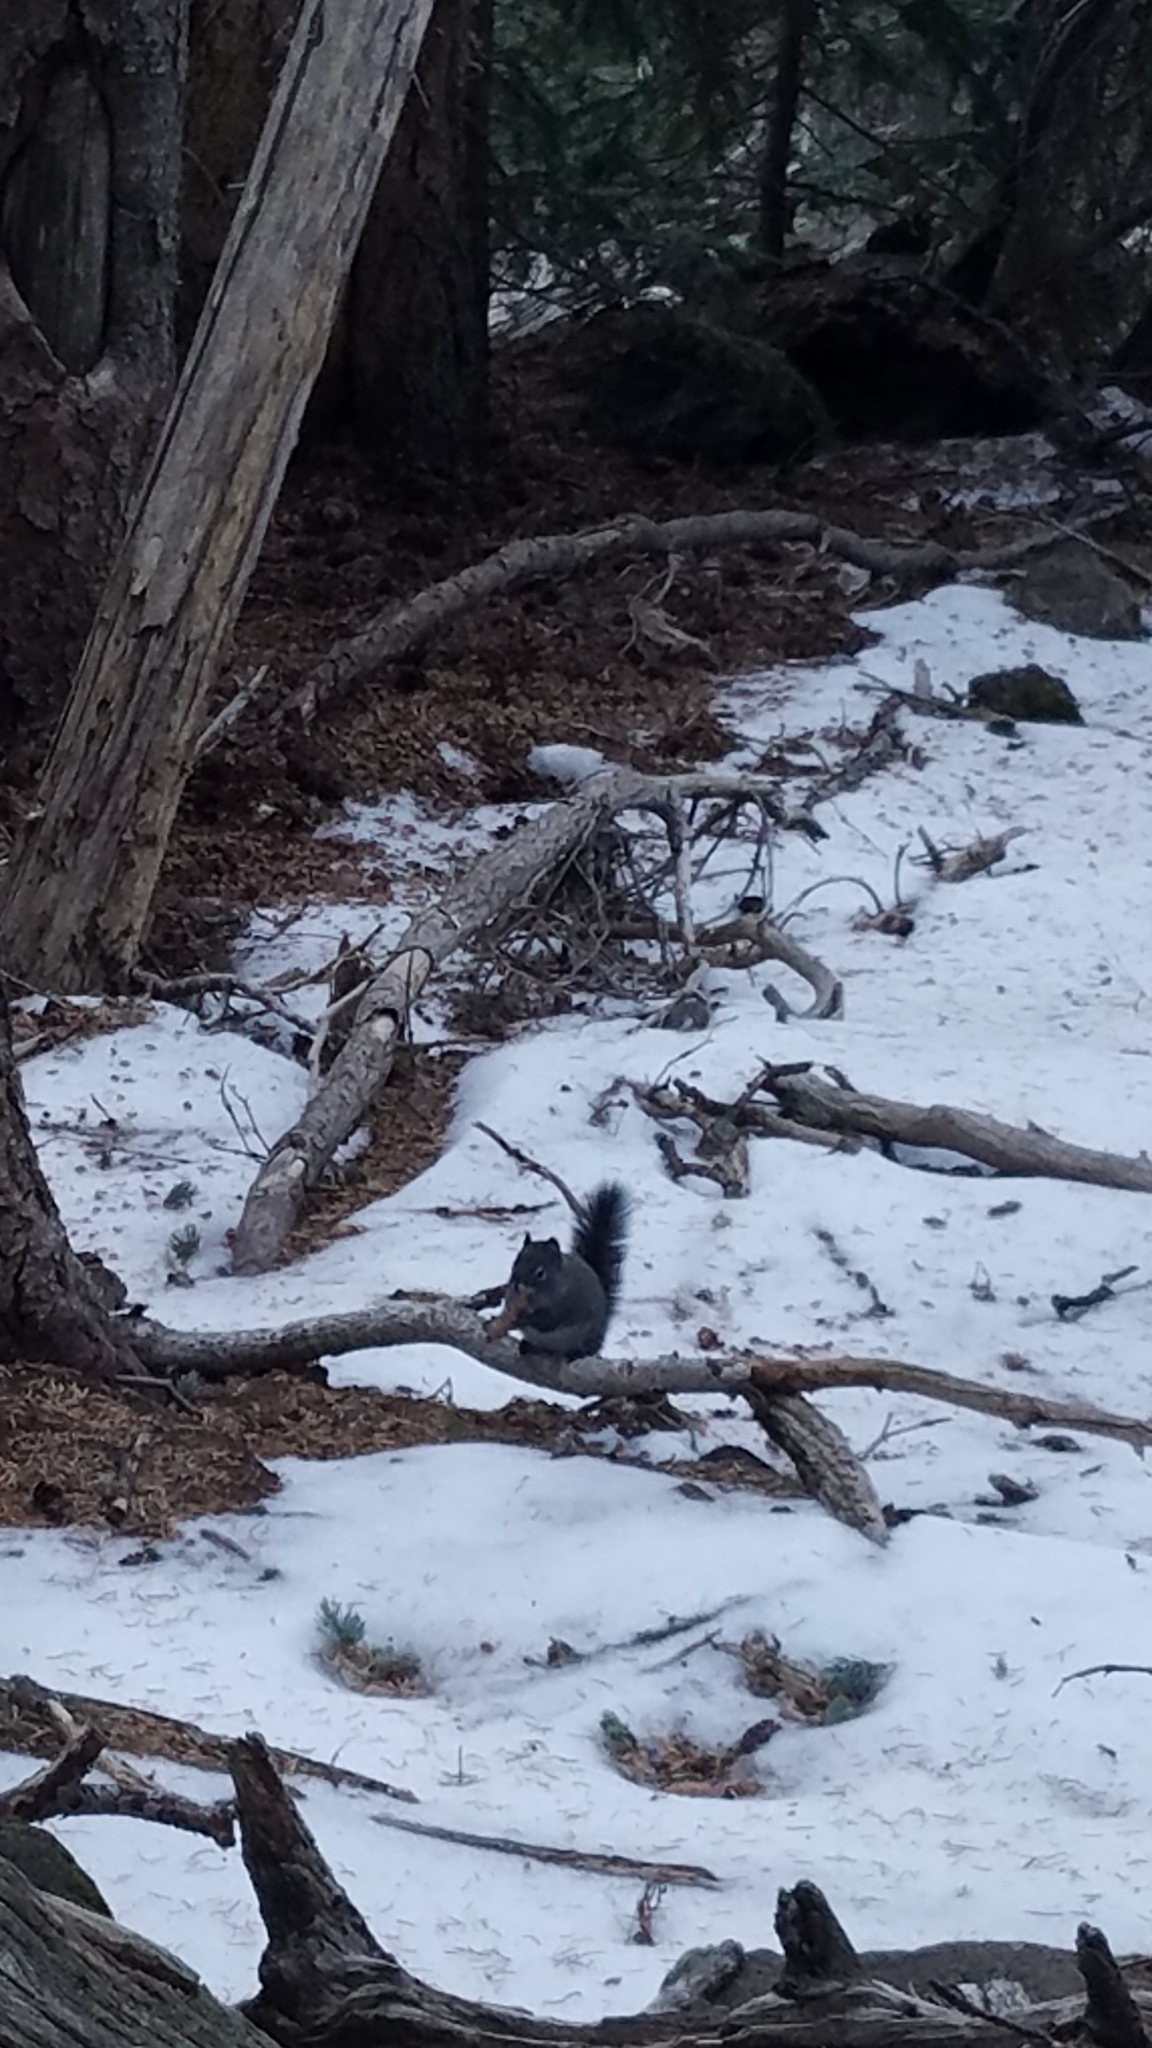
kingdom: Animalia
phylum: Chordata
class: Mammalia
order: Rodentia
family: Sciuridae
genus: Sciurus
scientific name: Sciurus aberti
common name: Abert's squirrel
